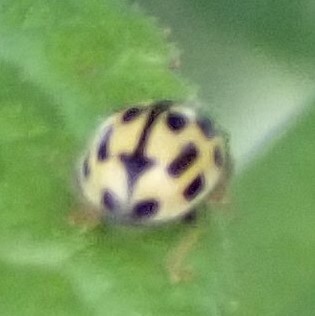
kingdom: Animalia
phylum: Arthropoda
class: Insecta
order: Coleoptera
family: Coccinellidae
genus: Propylaea
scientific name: Propylaea quatuordecimpunctata
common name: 14-spotted ladybird beetle
